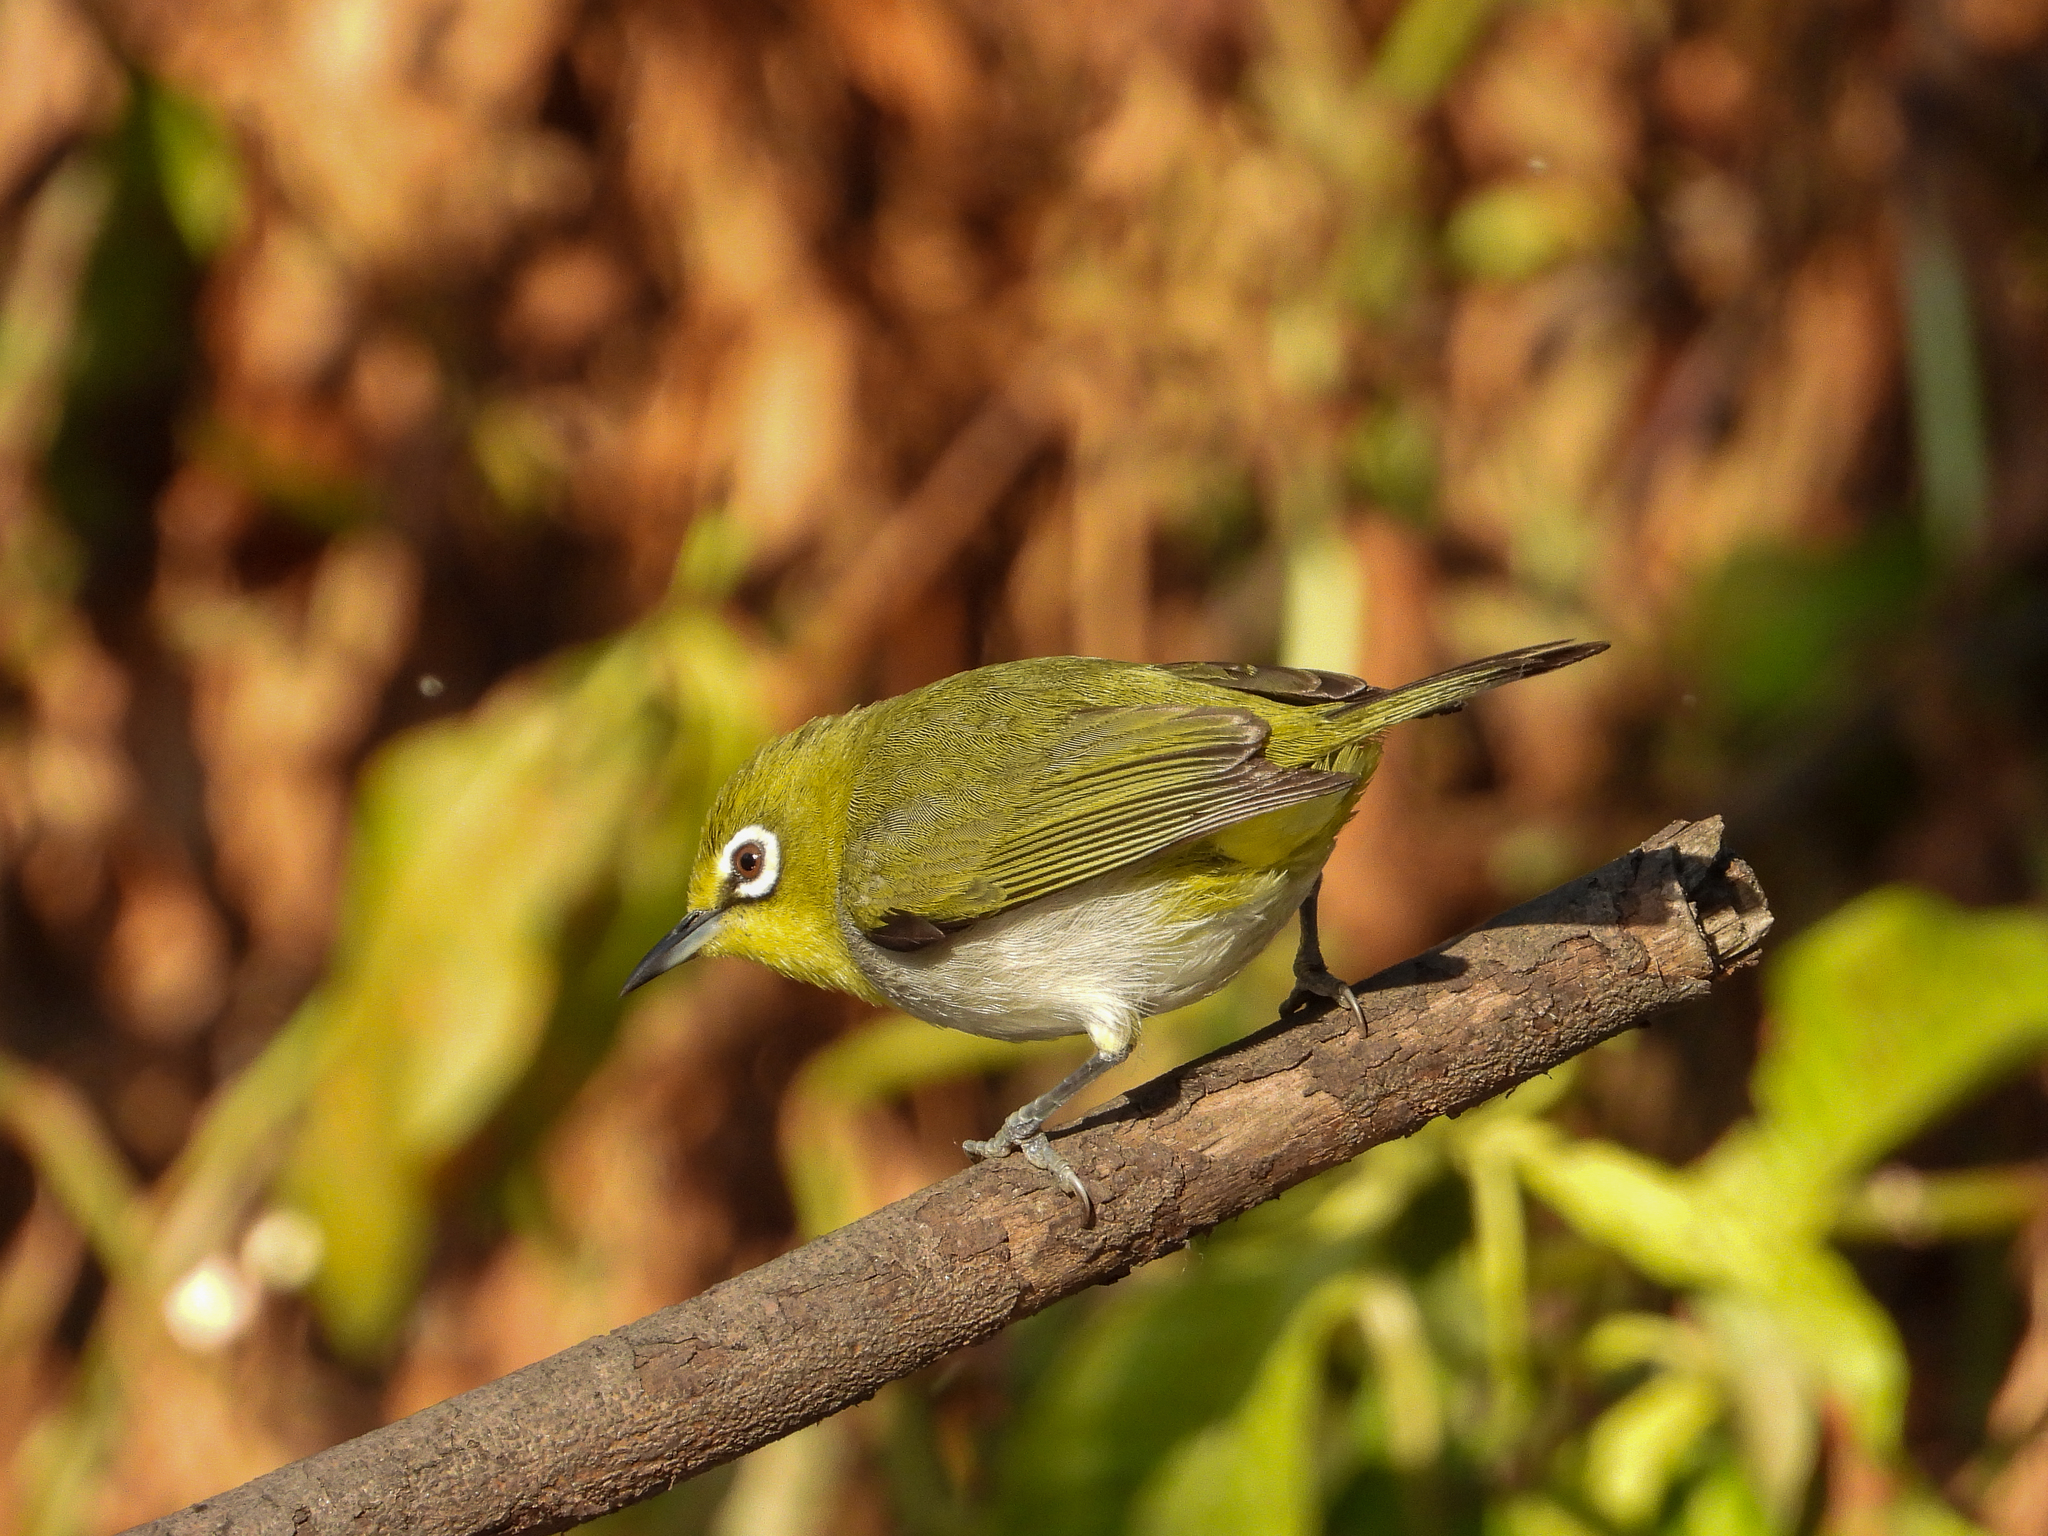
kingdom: Animalia
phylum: Chordata
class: Aves
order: Passeriformes
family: Zosteropidae
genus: Zosterops
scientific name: Zosterops simplex
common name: Swinhoe's white-eye
